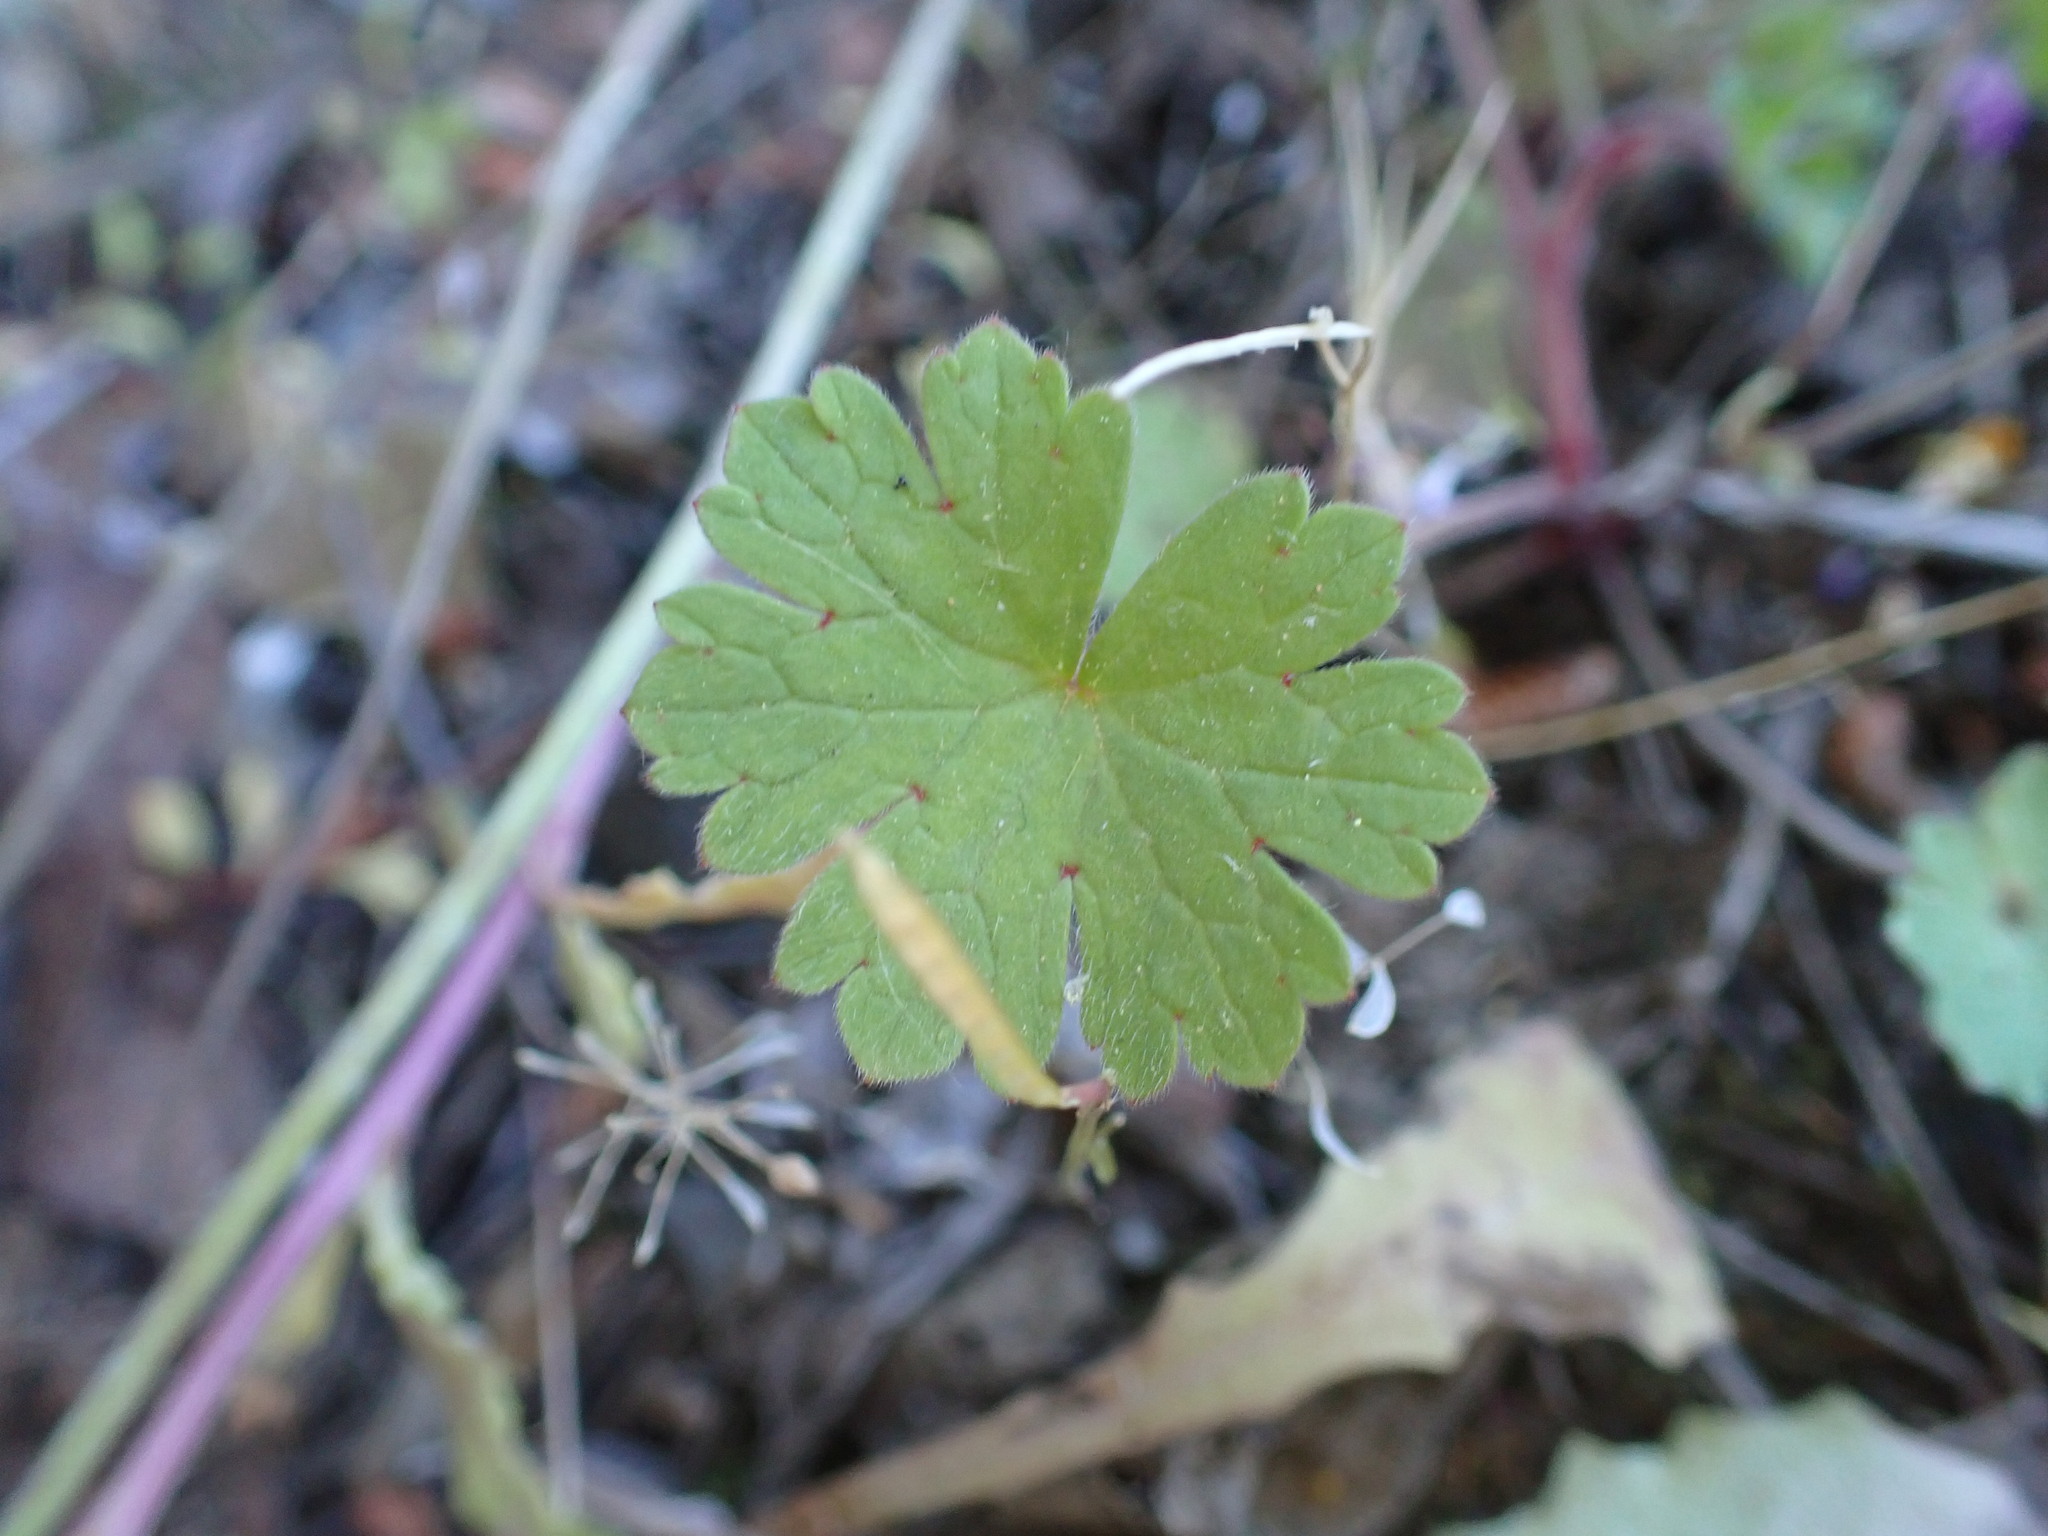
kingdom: Plantae
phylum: Tracheophyta
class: Magnoliopsida
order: Geraniales
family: Geraniaceae
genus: Geranium
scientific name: Geranium rotundifolium
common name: Round-leaved crane's-bill
